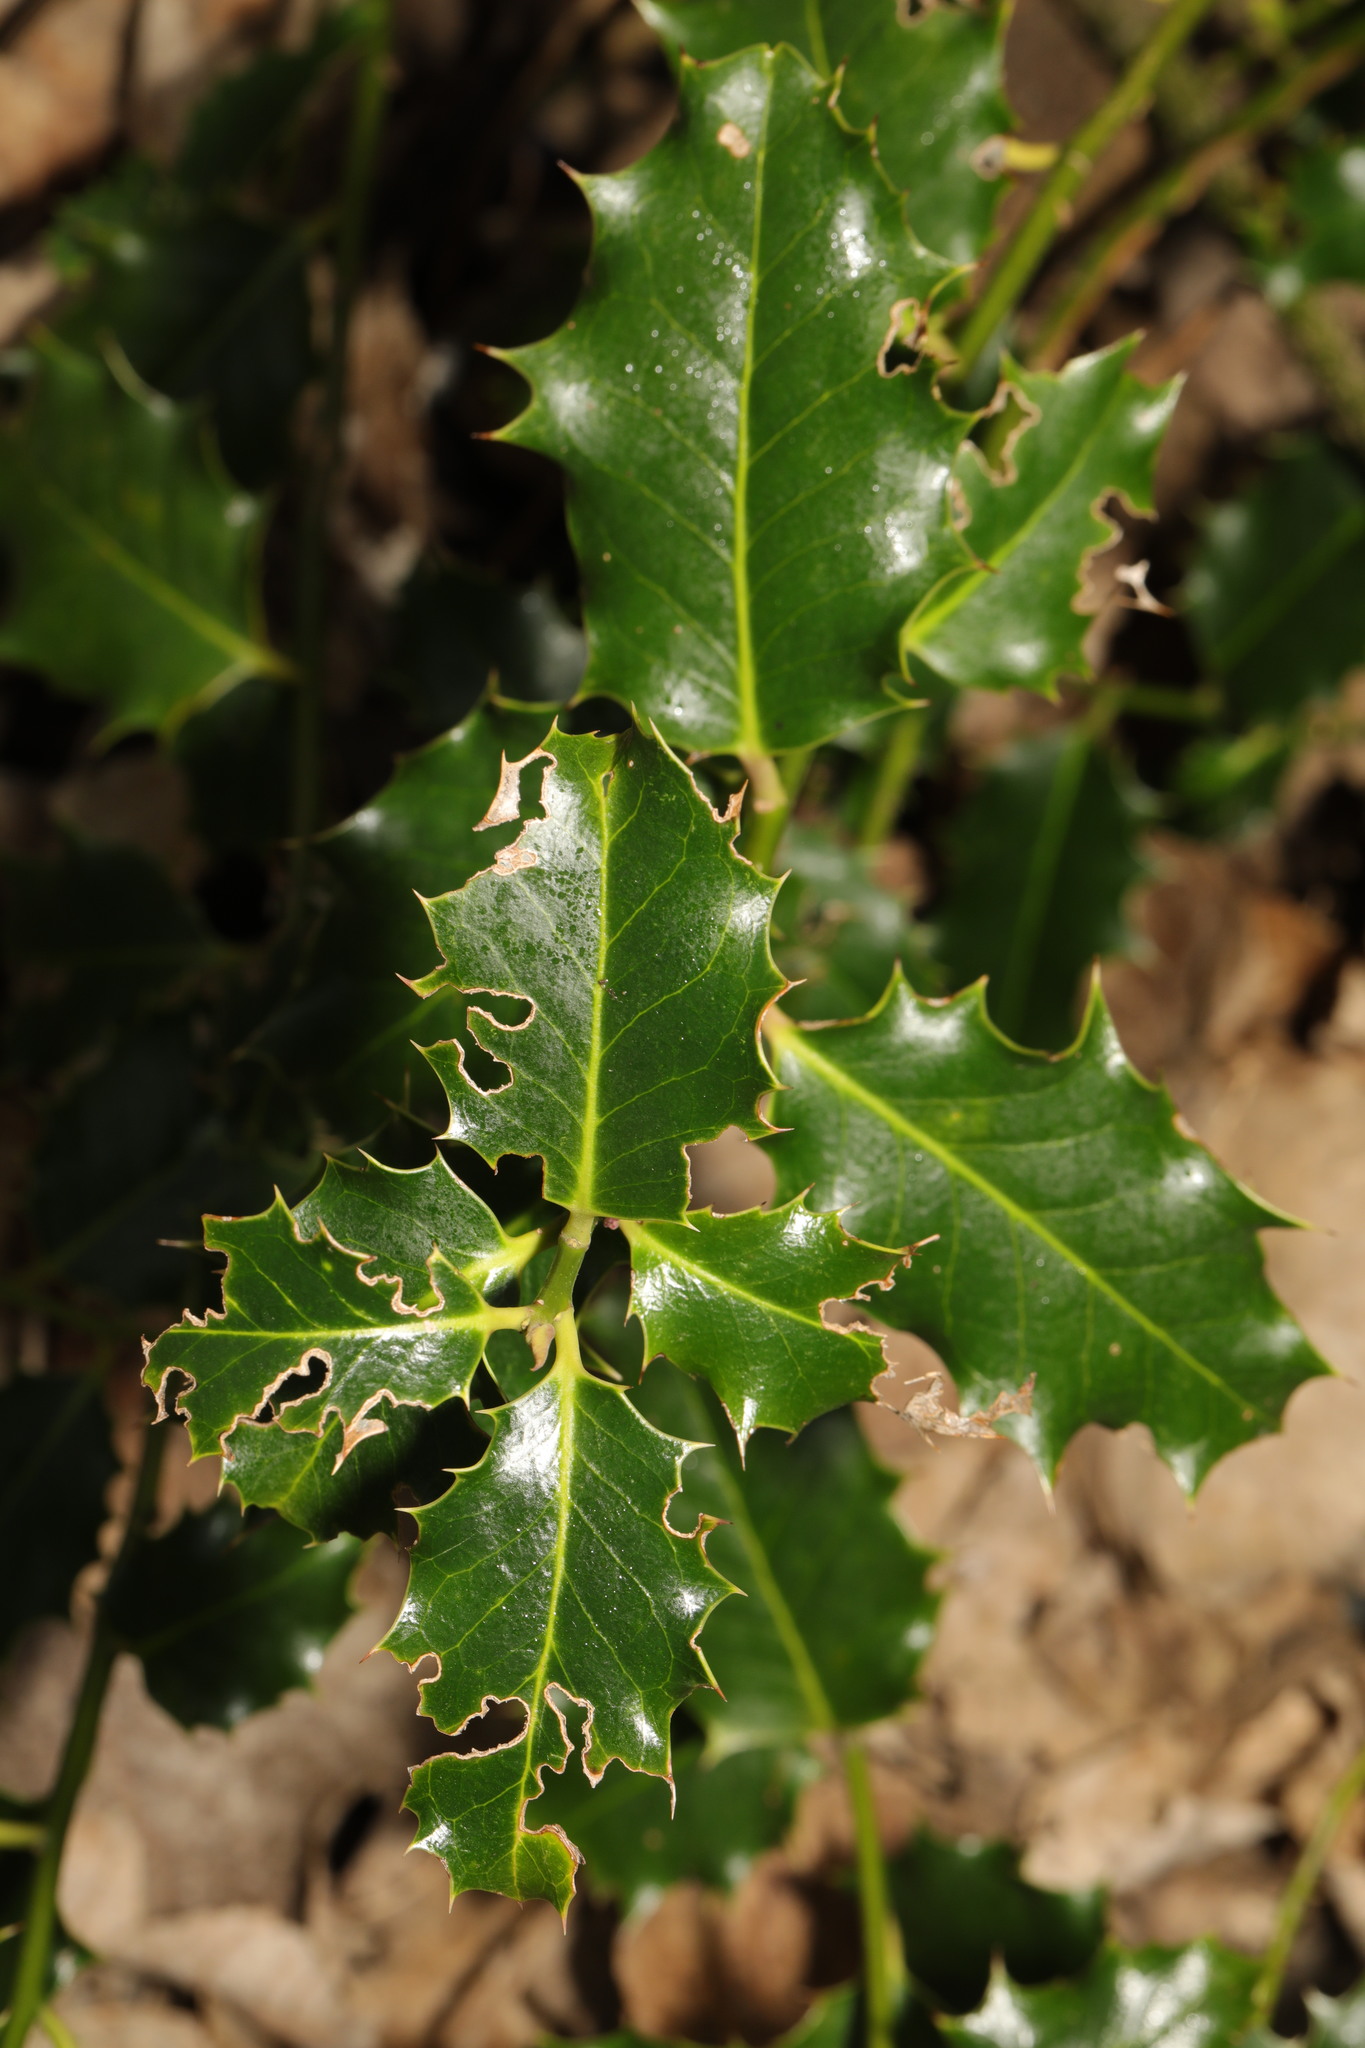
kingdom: Plantae
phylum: Tracheophyta
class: Magnoliopsida
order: Aquifoliales
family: Aquifoliaceae
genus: Ilex
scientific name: Ilex aquifolium
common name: English holly
